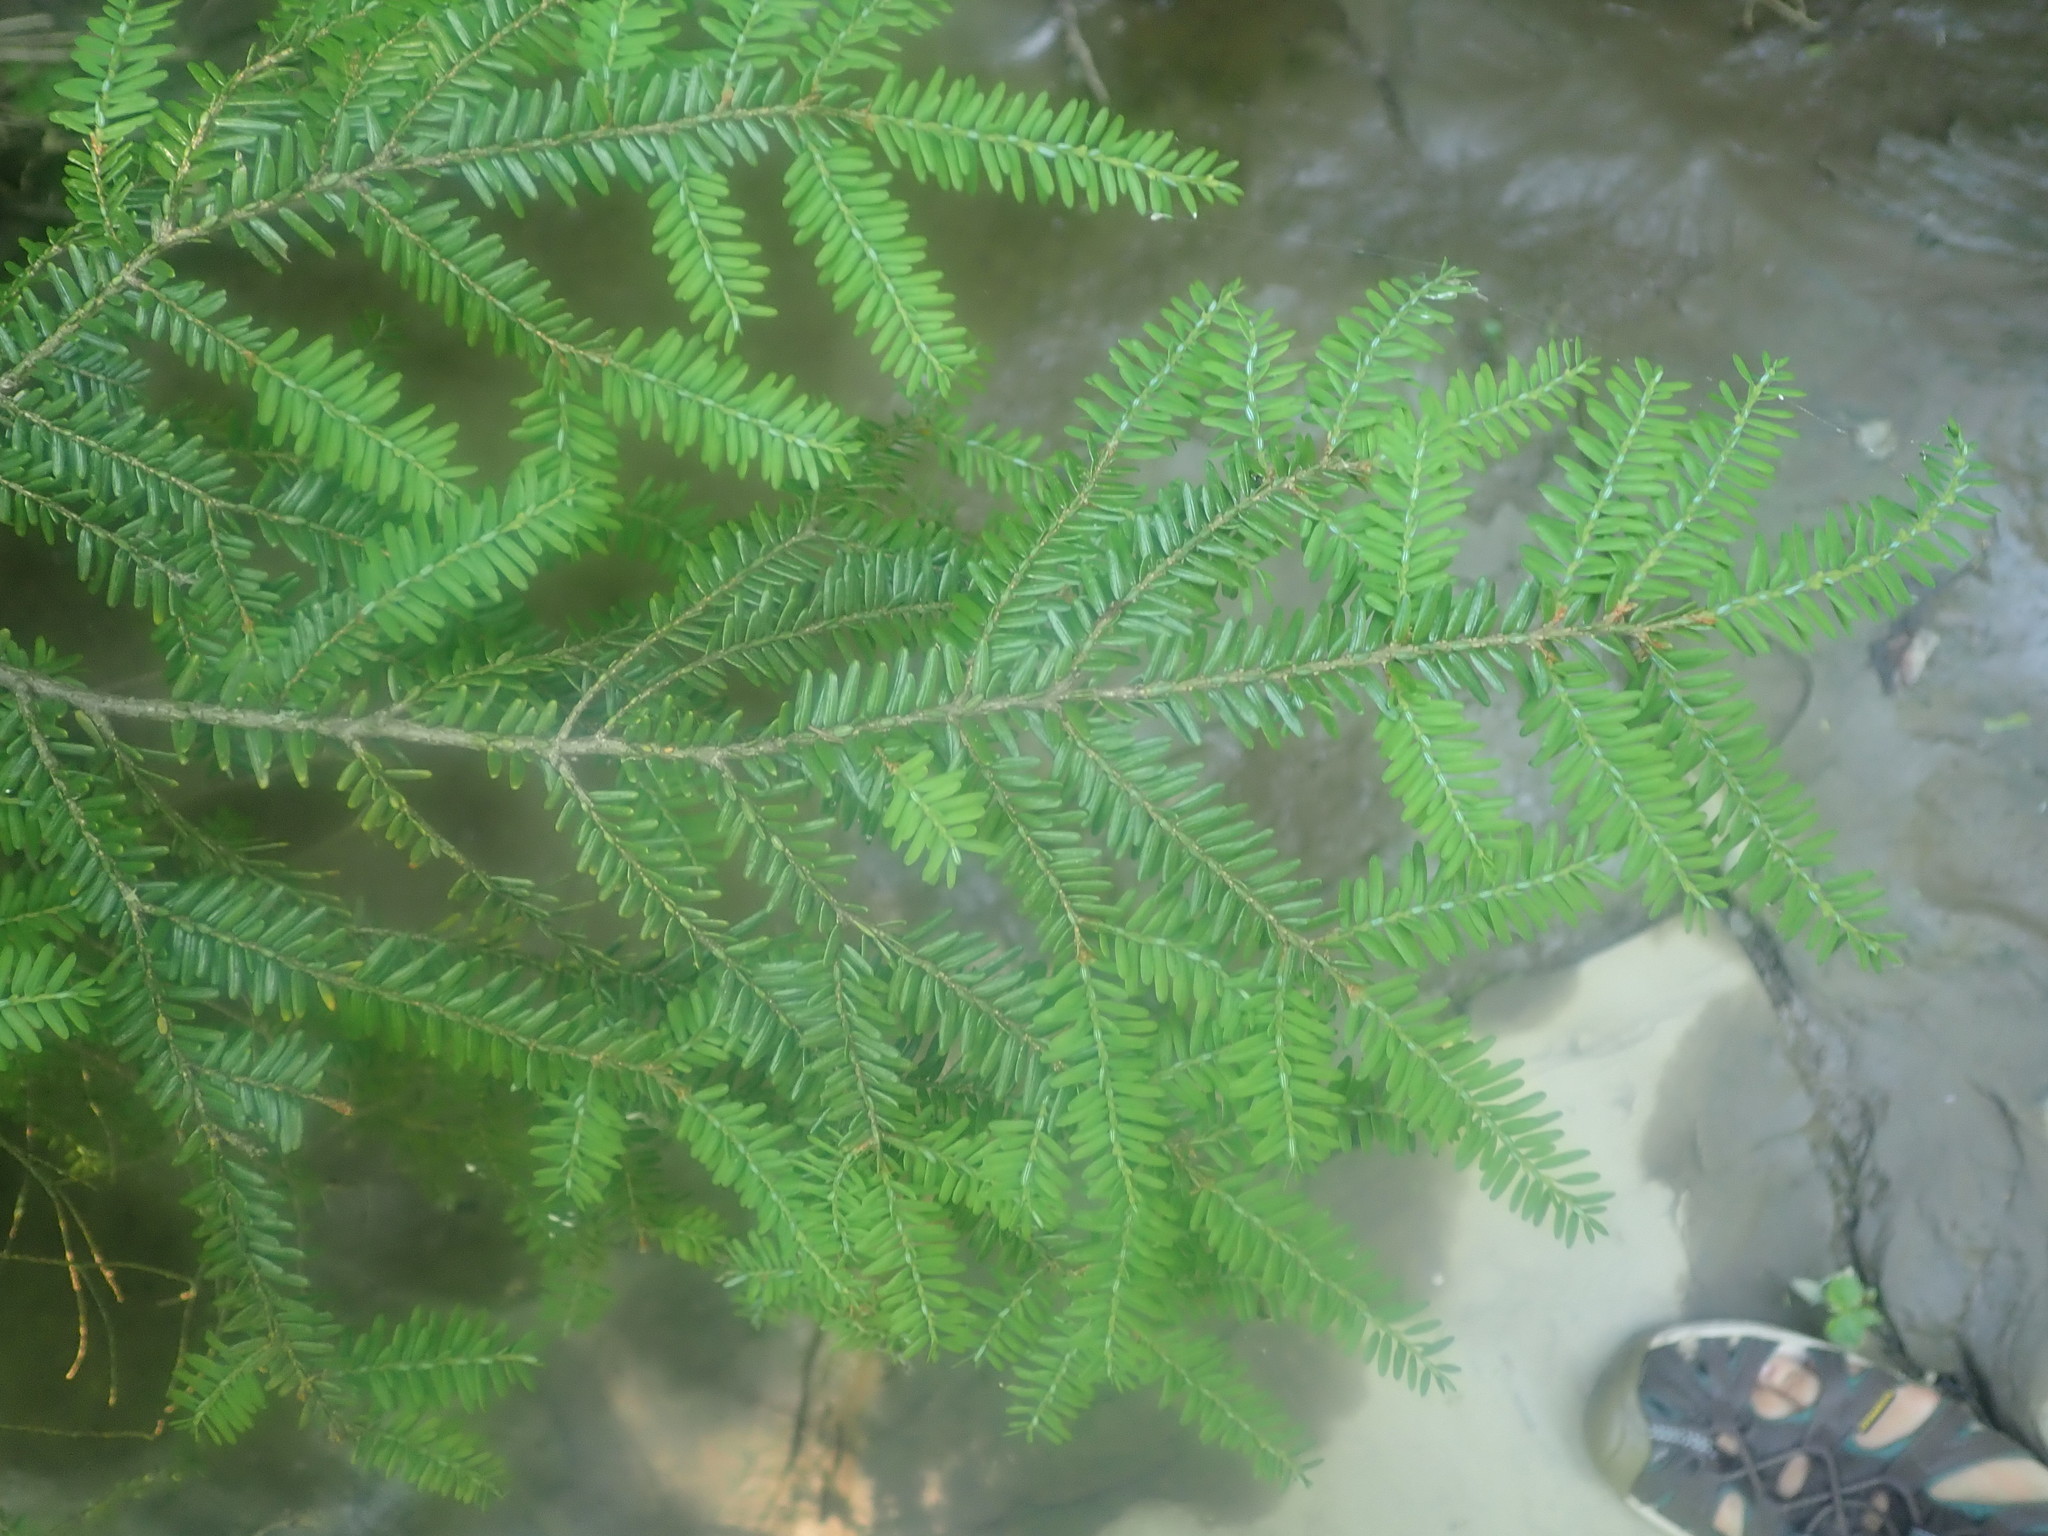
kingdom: Plantae
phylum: Tracheophyta
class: Pinopsida
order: Pinales
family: Pinaceae
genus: Tsuga
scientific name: Tsuga canadensis
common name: Eastern hemlock
